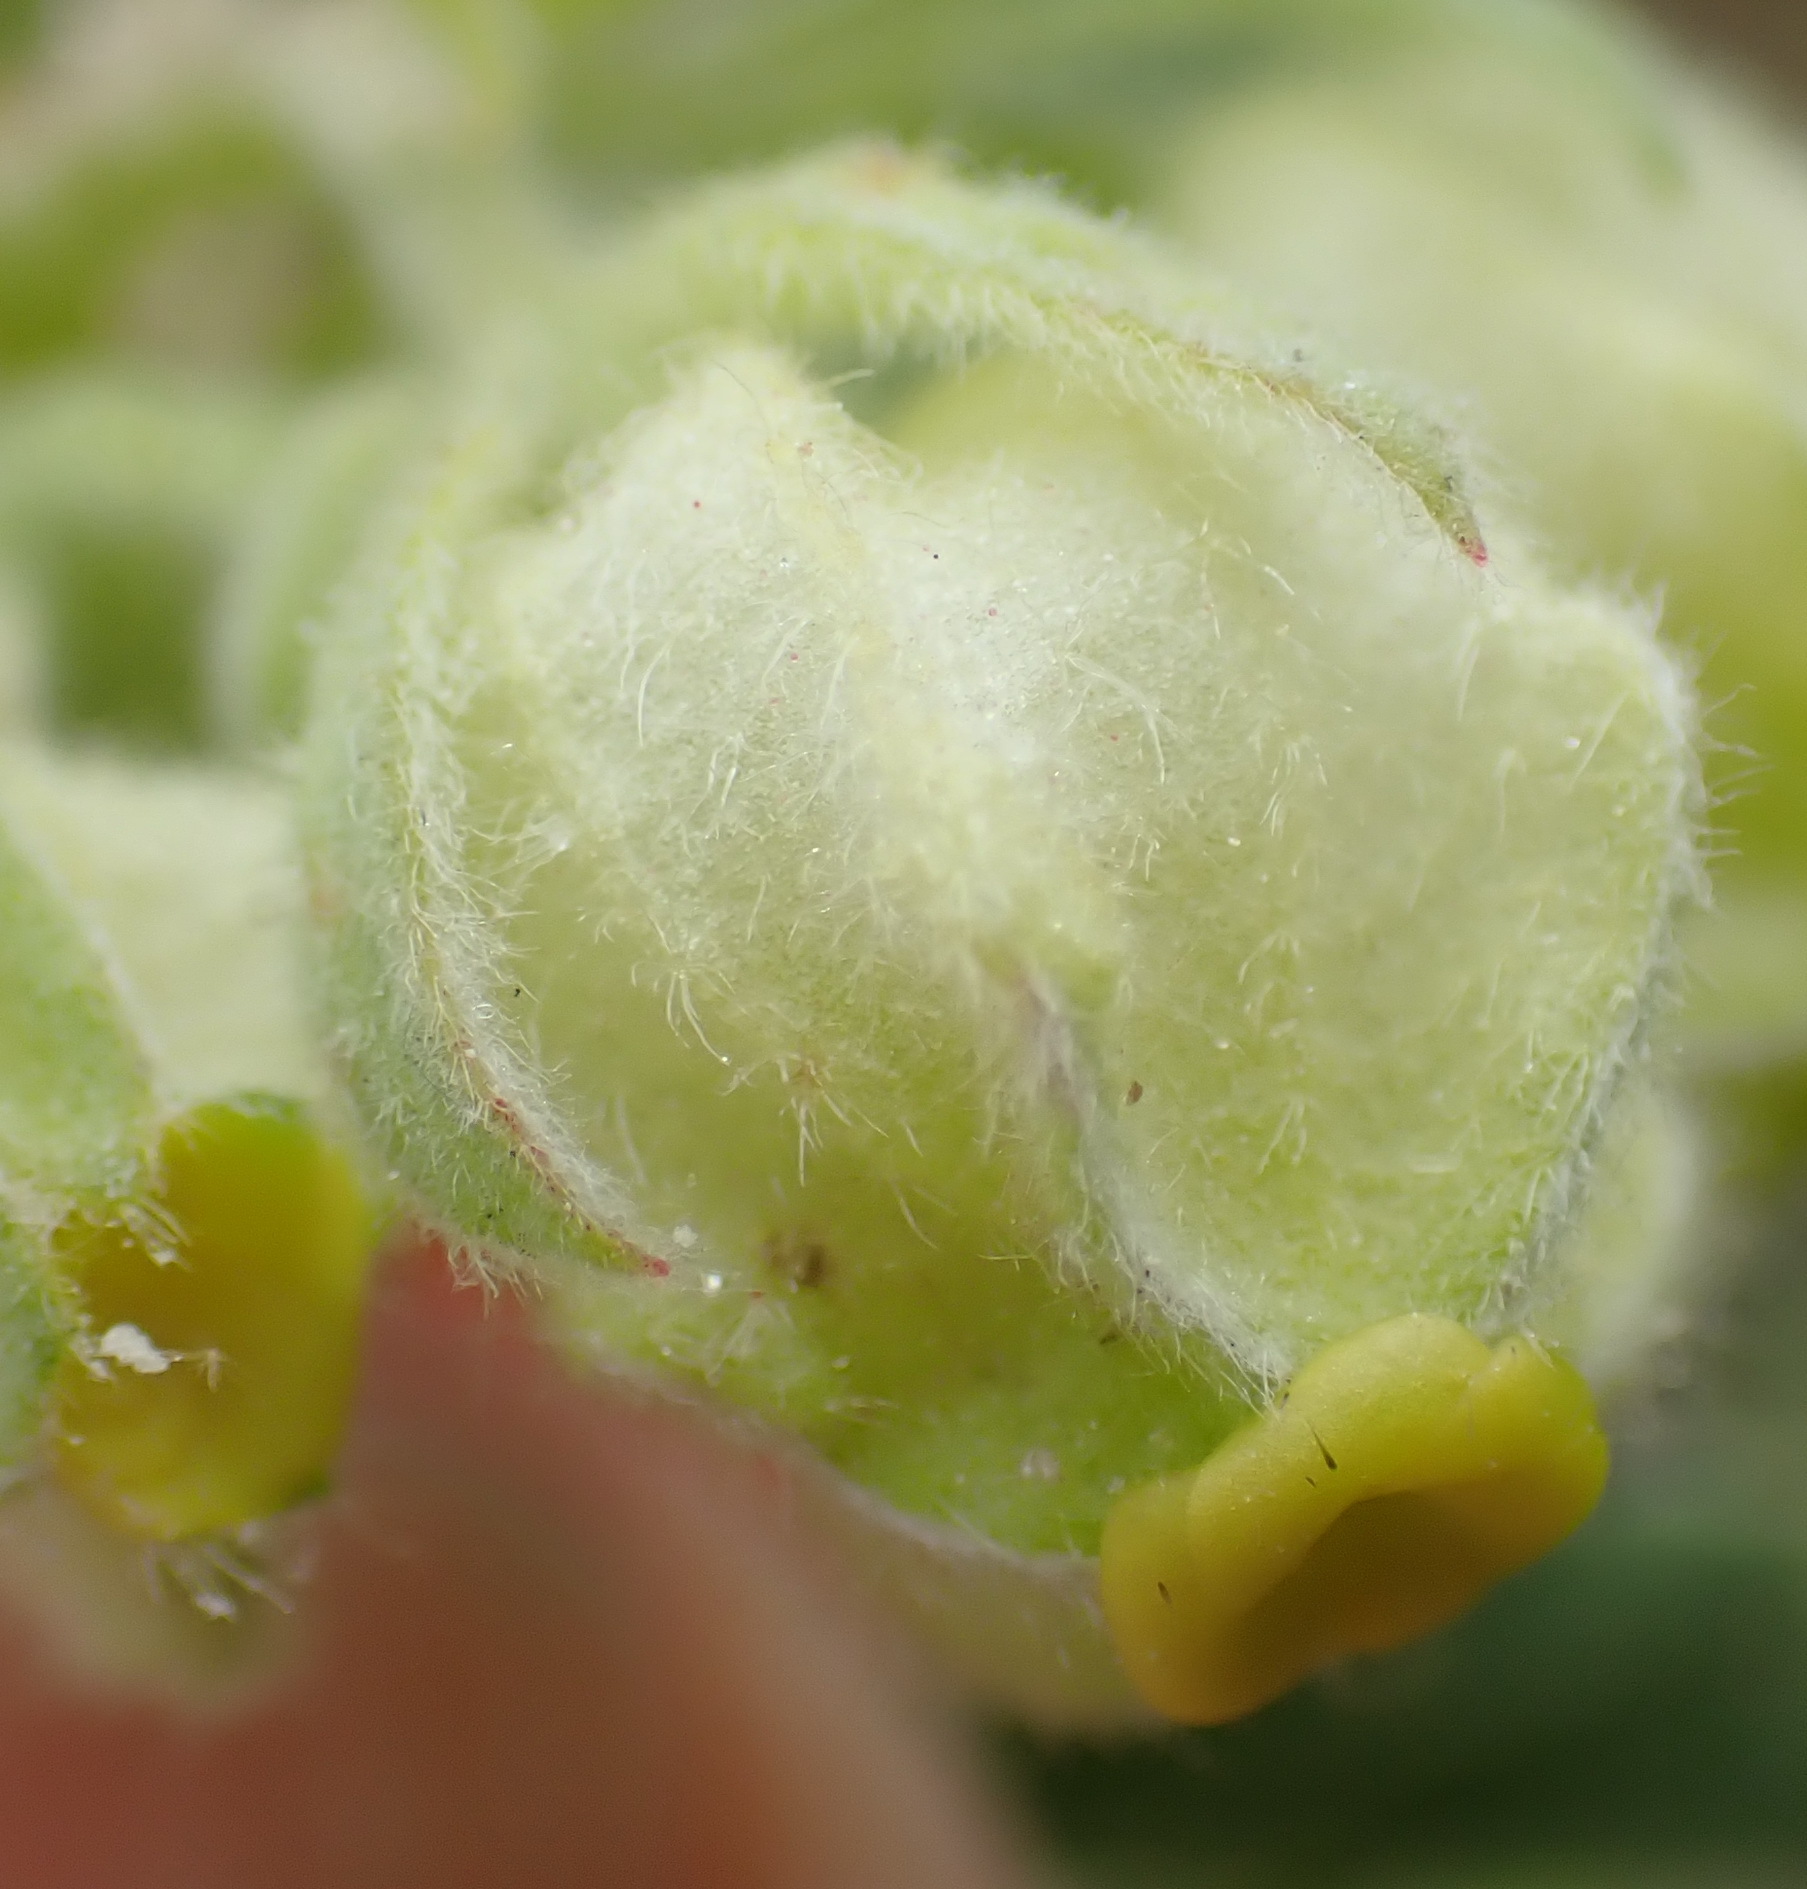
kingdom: Plantae
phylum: Tracheophyta
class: Magnoliopsida
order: Malvales
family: Malvaceae
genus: Hermannia
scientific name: Hermannia hyssopifolia
